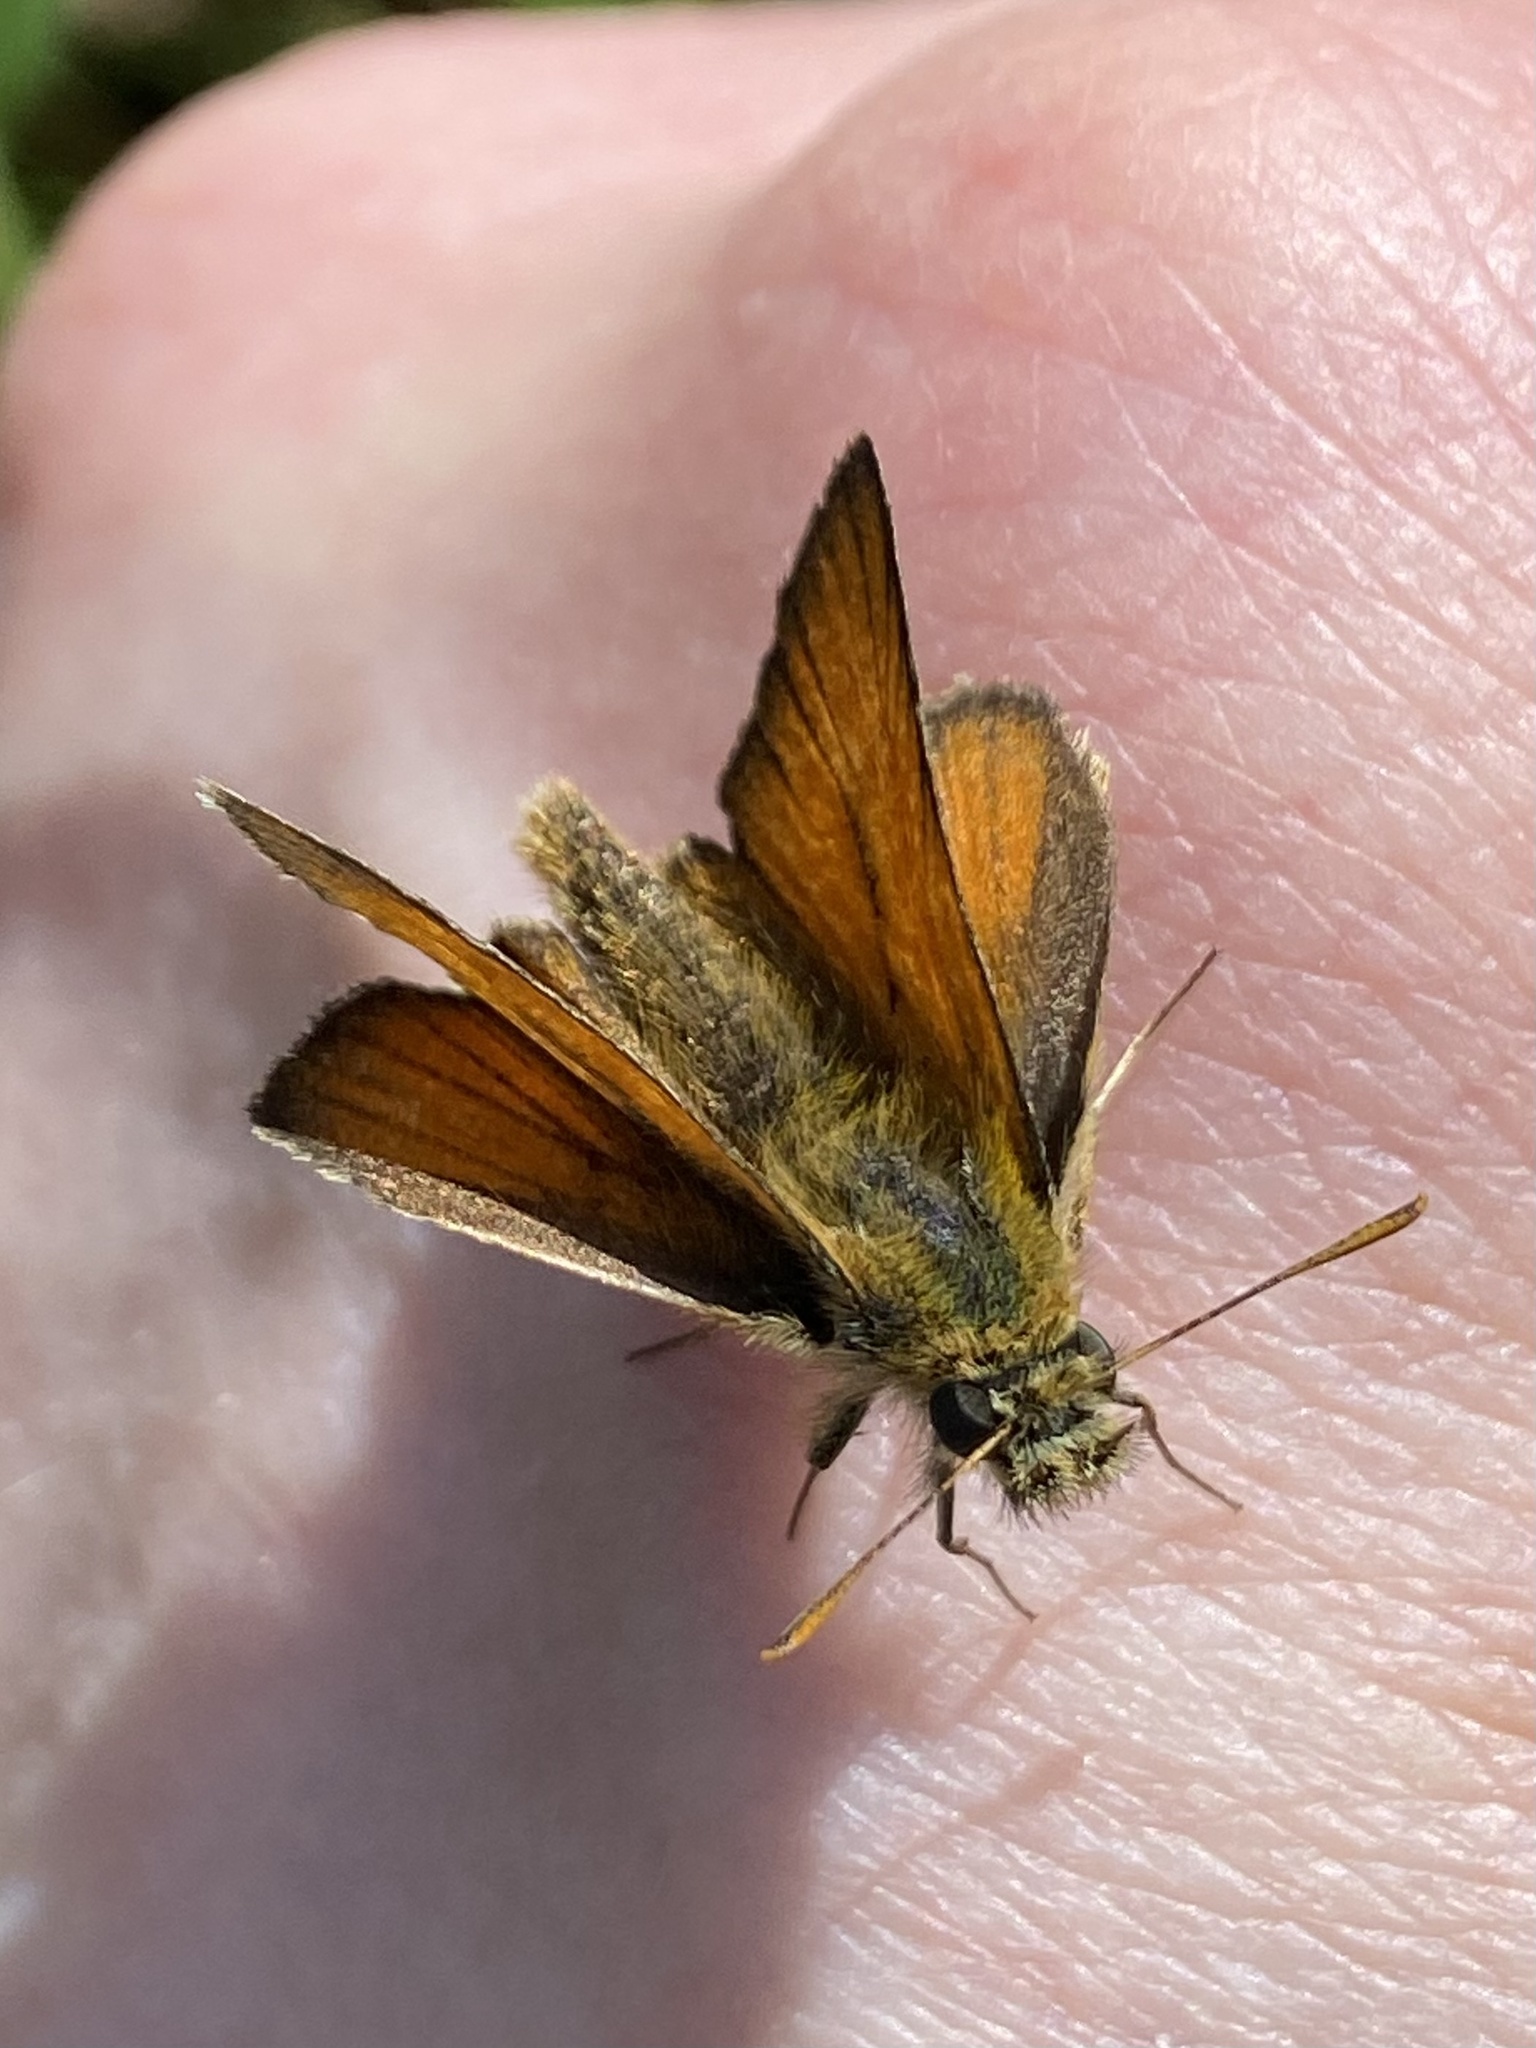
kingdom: Animalia
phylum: Arthropoda
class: Insecta
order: Lepidoptera
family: Hesperiidae
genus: Thymelicus
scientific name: Thymelicus sylvestris
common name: Small skipper
